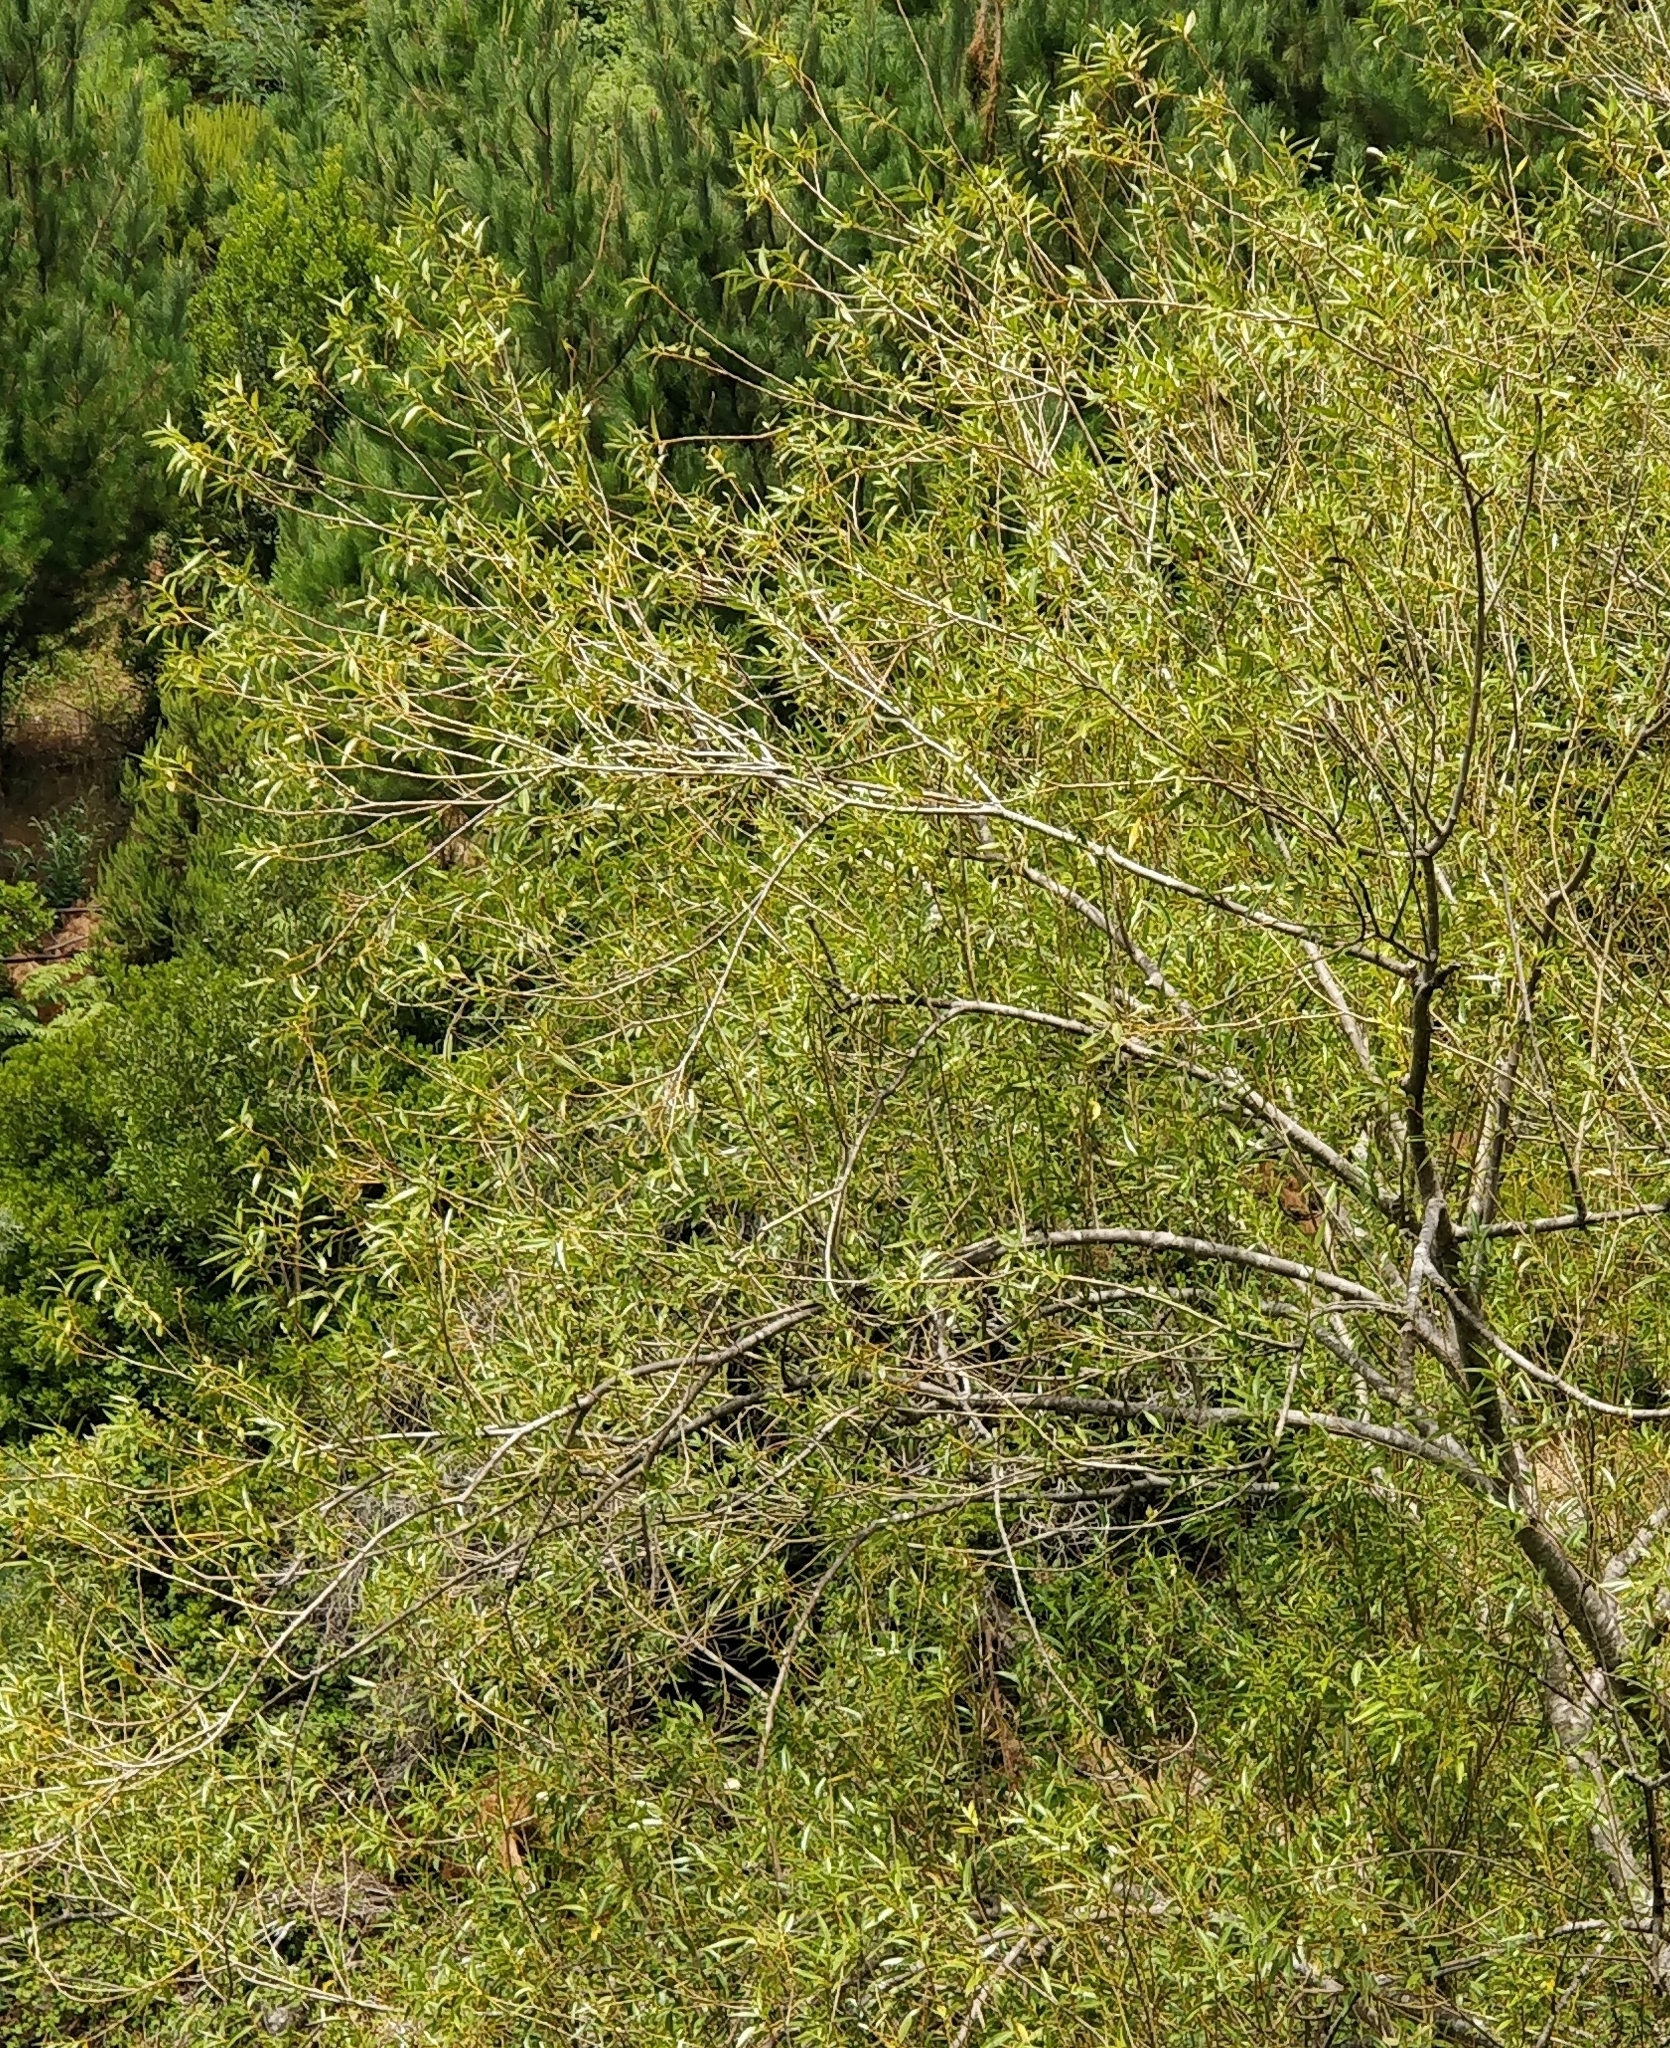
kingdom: Plantae
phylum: Tracheophyta
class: Magnoliopsida
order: Malpighiales
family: Salicaceae
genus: Salix
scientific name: Salix canariensis
